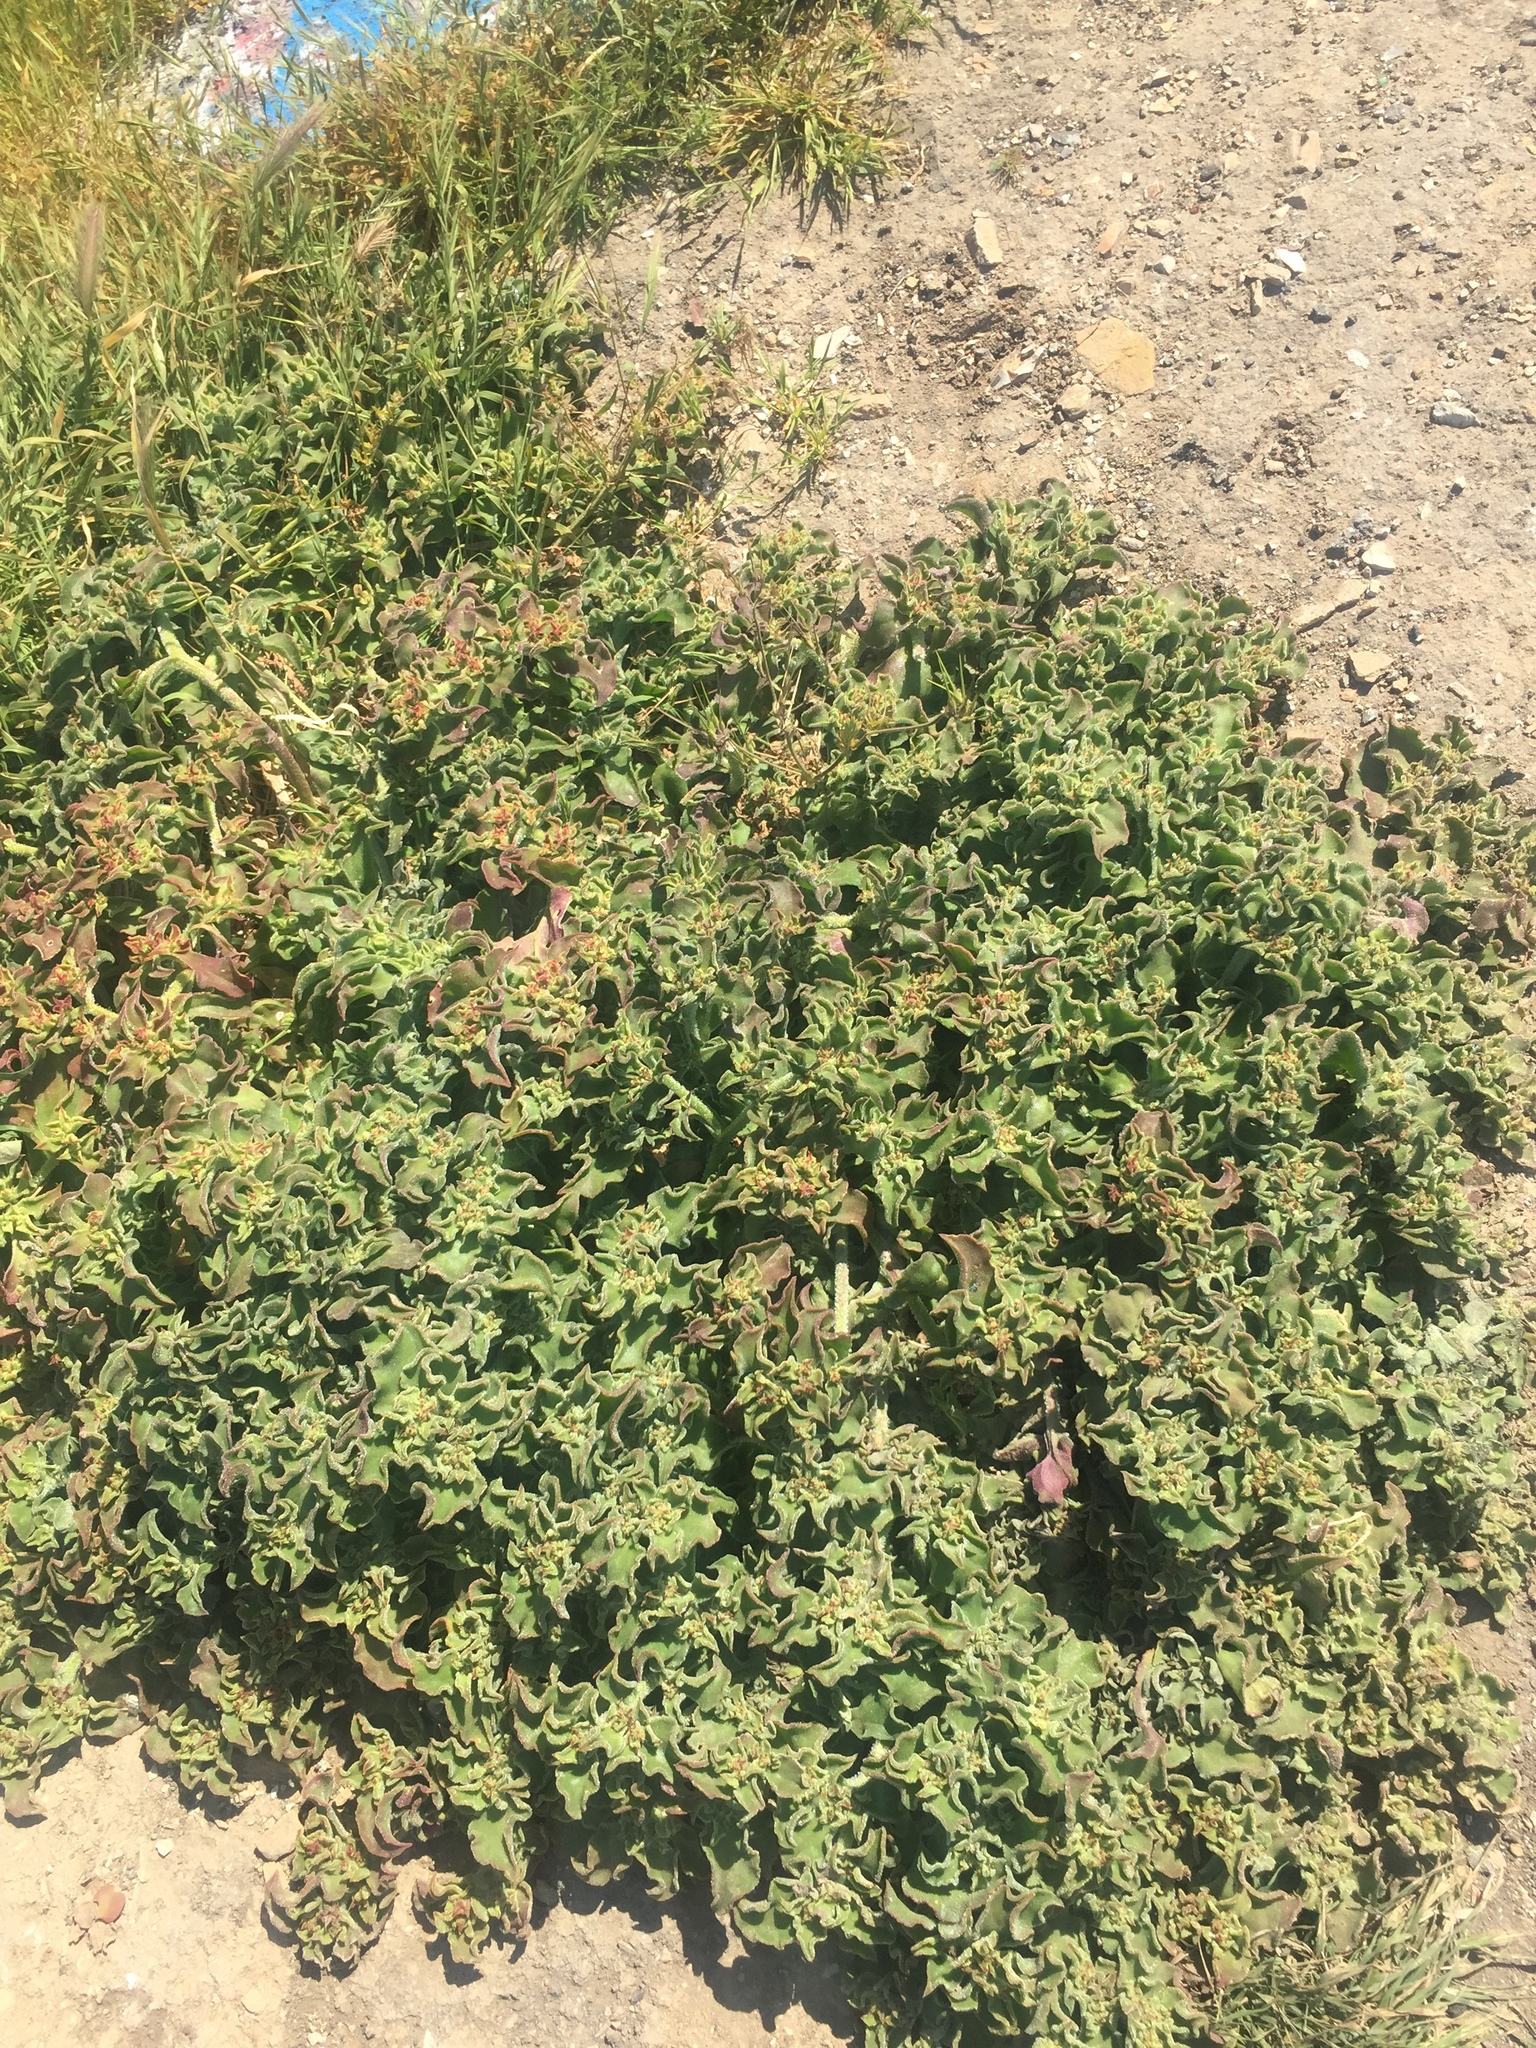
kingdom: Plantae
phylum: Tracheophyta
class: Magnoliopsida
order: Caryophyllales
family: Aizoaceae
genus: Mesembryanthemum
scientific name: Mesembryanthemum crystallinum
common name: Common iceplant
